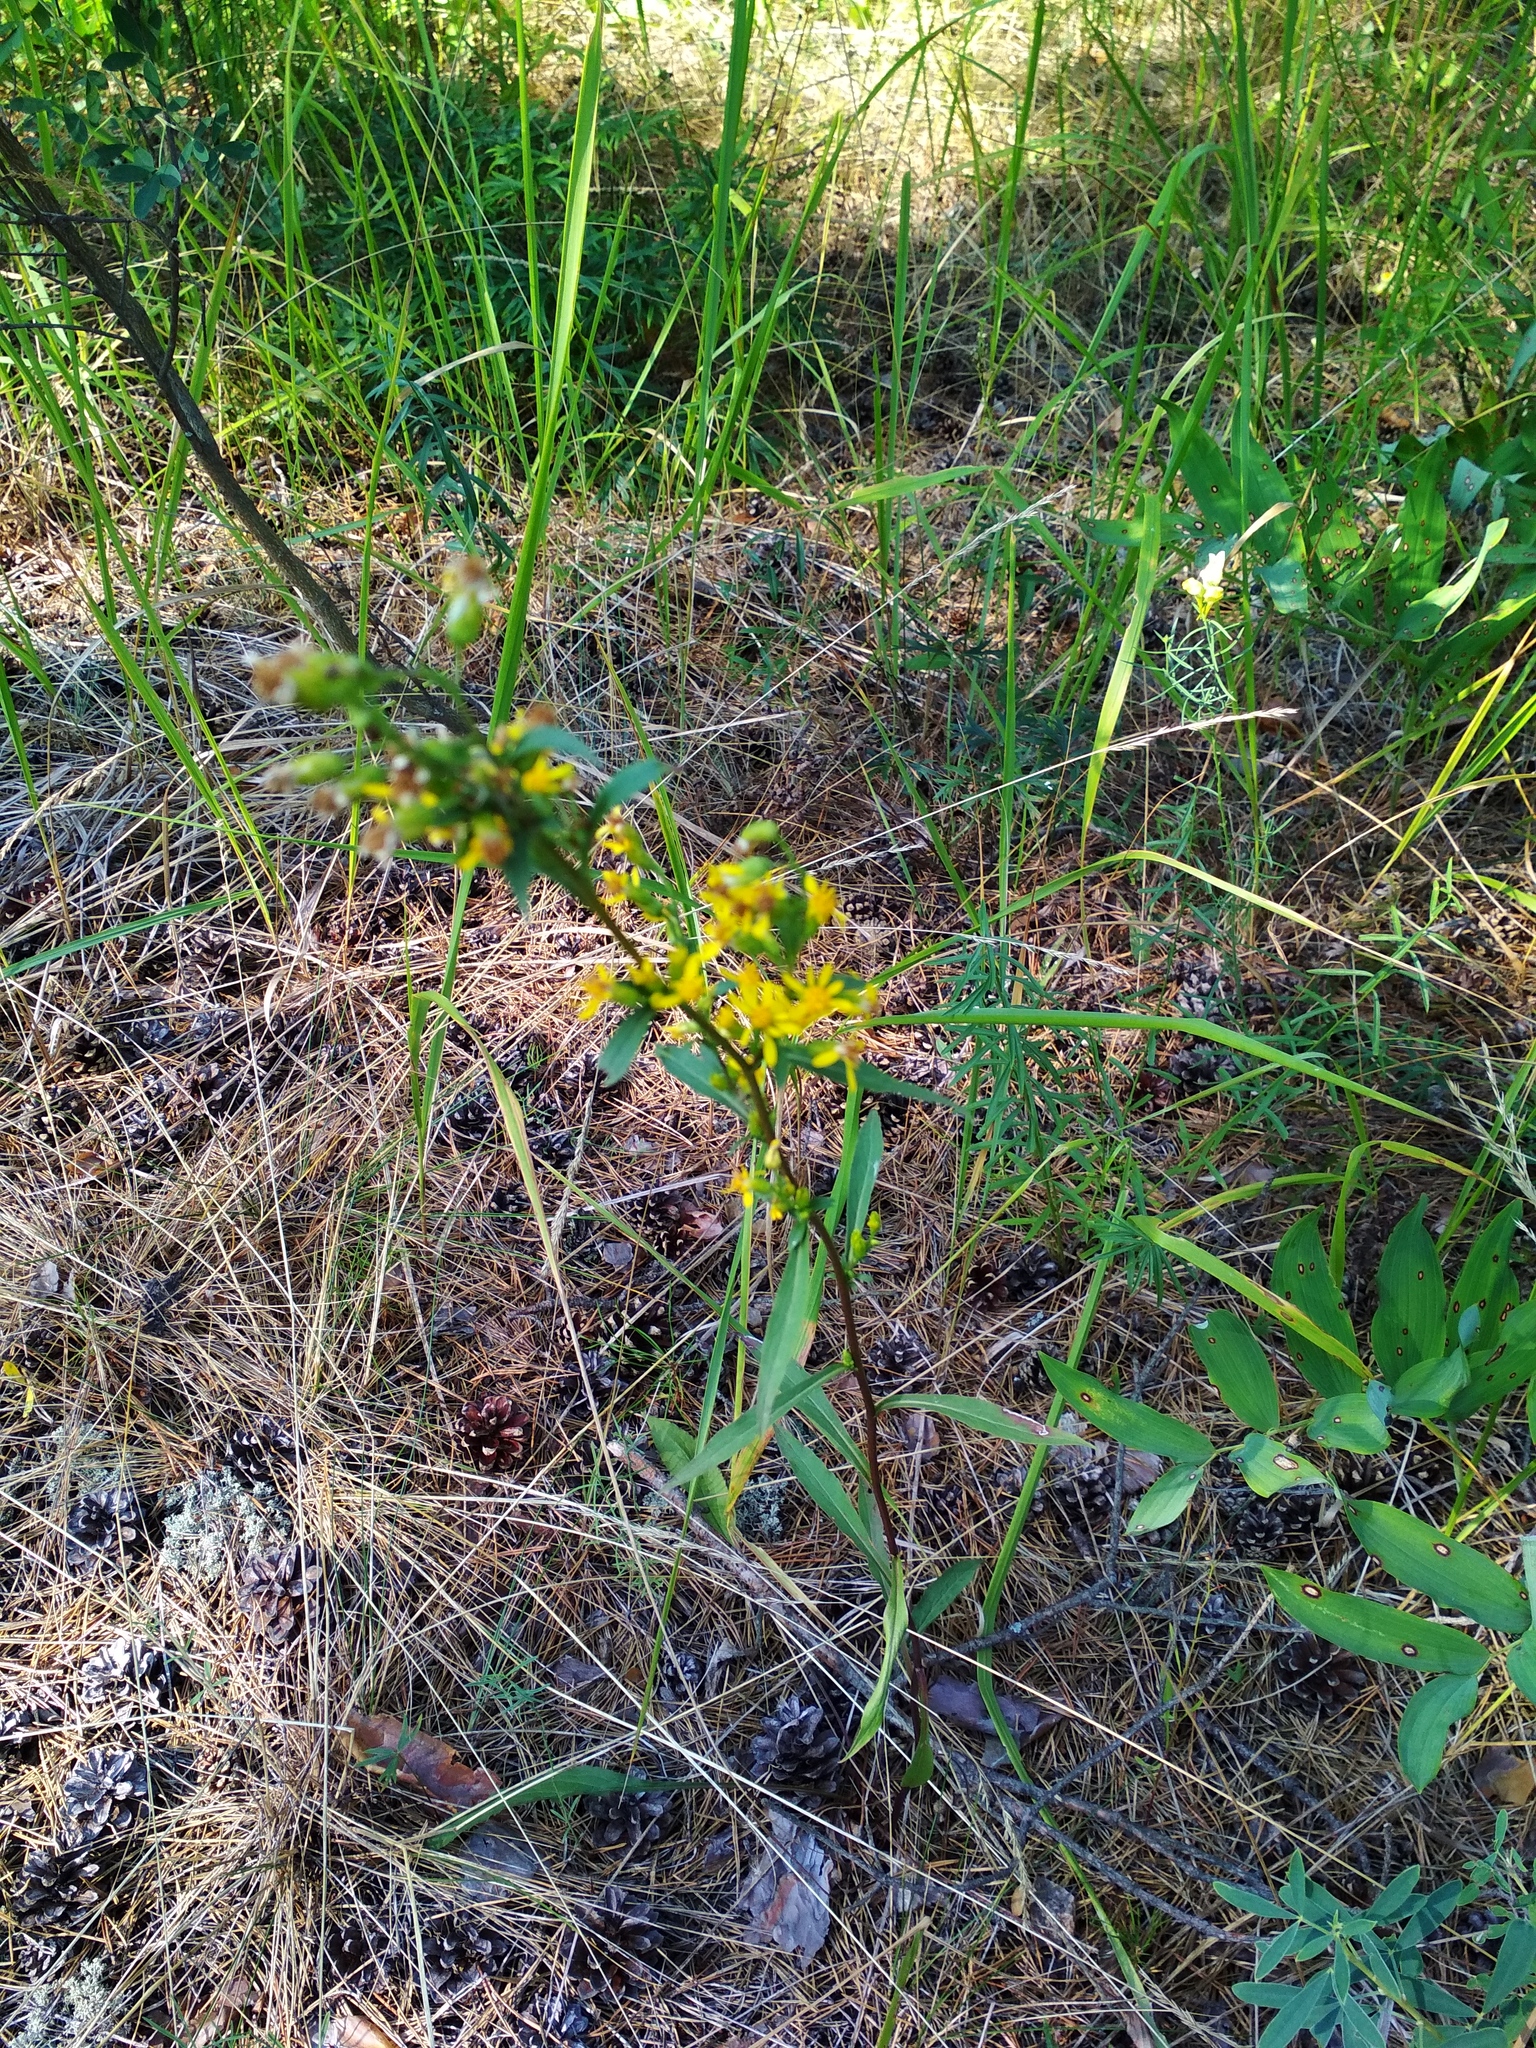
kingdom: Plantae
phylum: Tracheophyta
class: Magnoliopsida
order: Asterales
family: Asteraceae
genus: Solidago
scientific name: Solidago virgaurea
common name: Goldenrod
